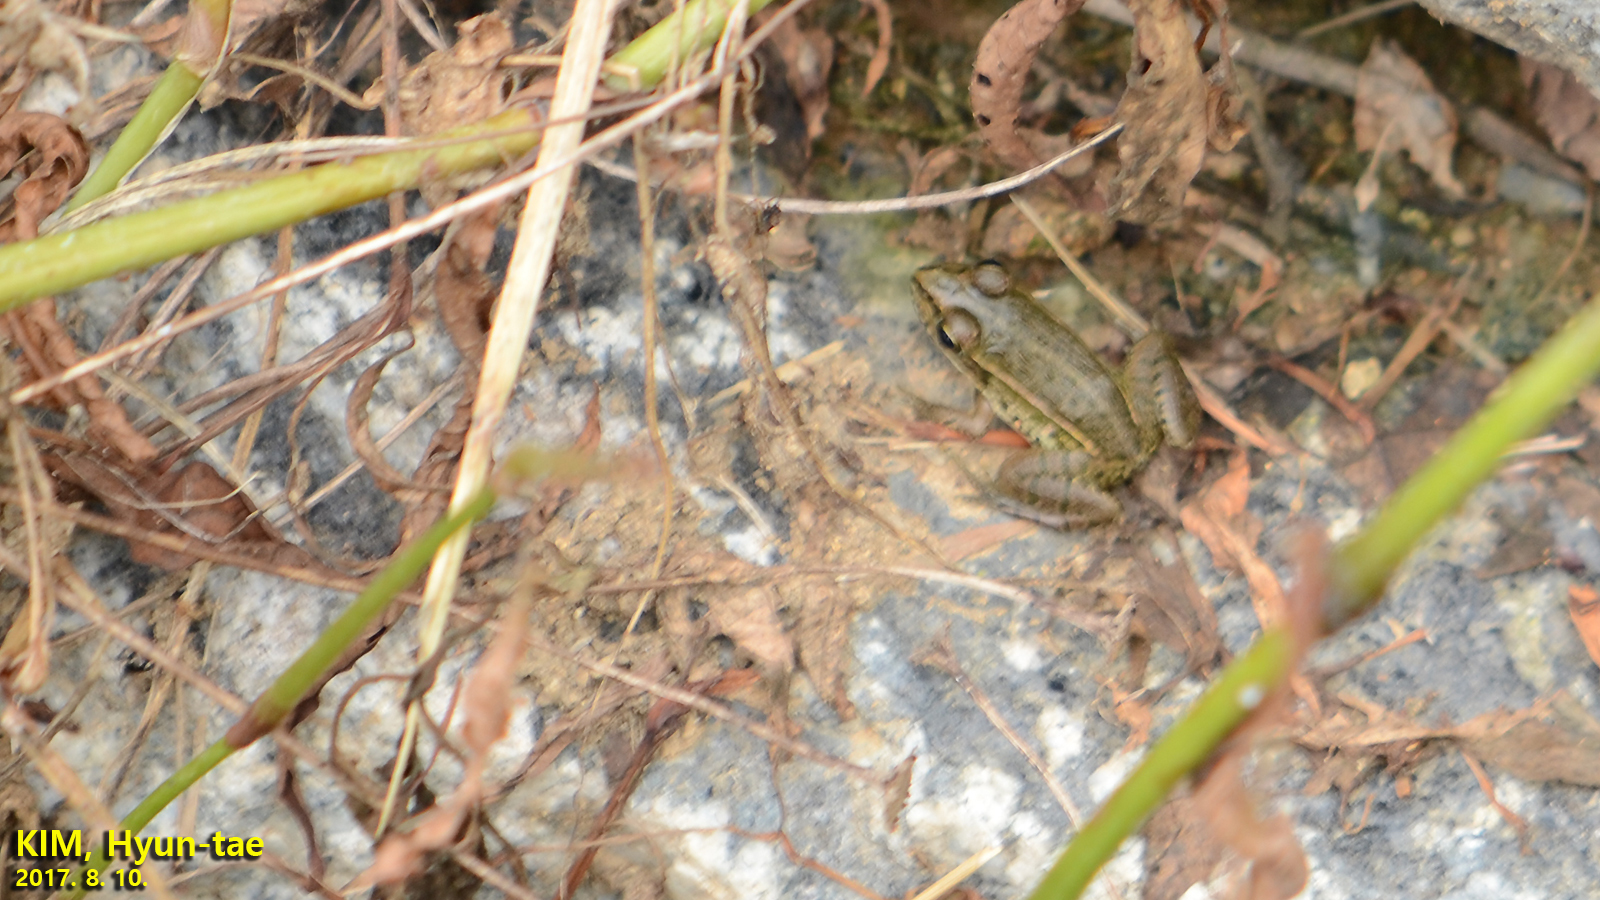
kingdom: Animalia
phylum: Chordata
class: Amphibia
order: Anura
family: Ranidae
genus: Pelophylax
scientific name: Pelophylax nigromaculatus
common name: Black-spotted pond frog
